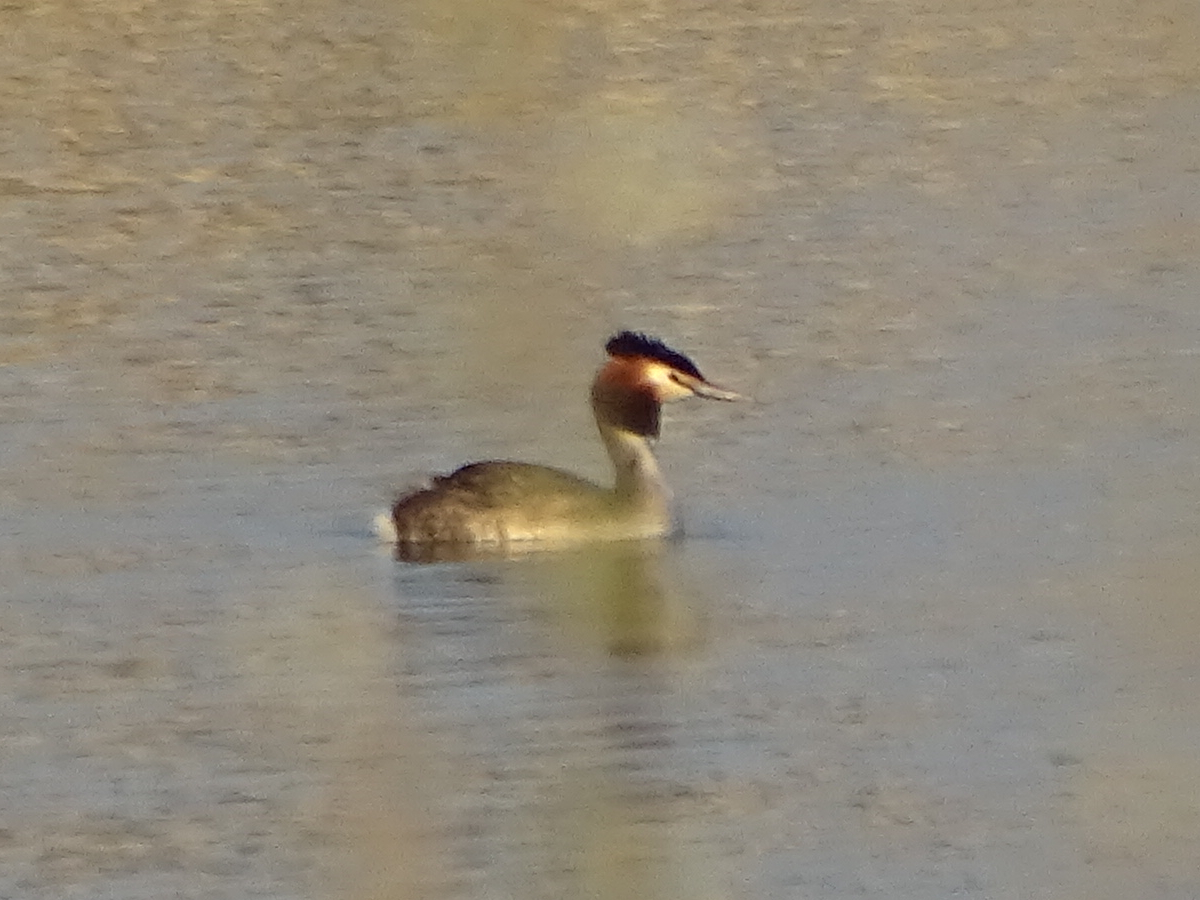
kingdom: Animalia
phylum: Chordata
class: Aves
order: Podicipediformes
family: Podicipedidae
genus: Podiceps
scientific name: Podiceps cristatus
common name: Great crested grebe
